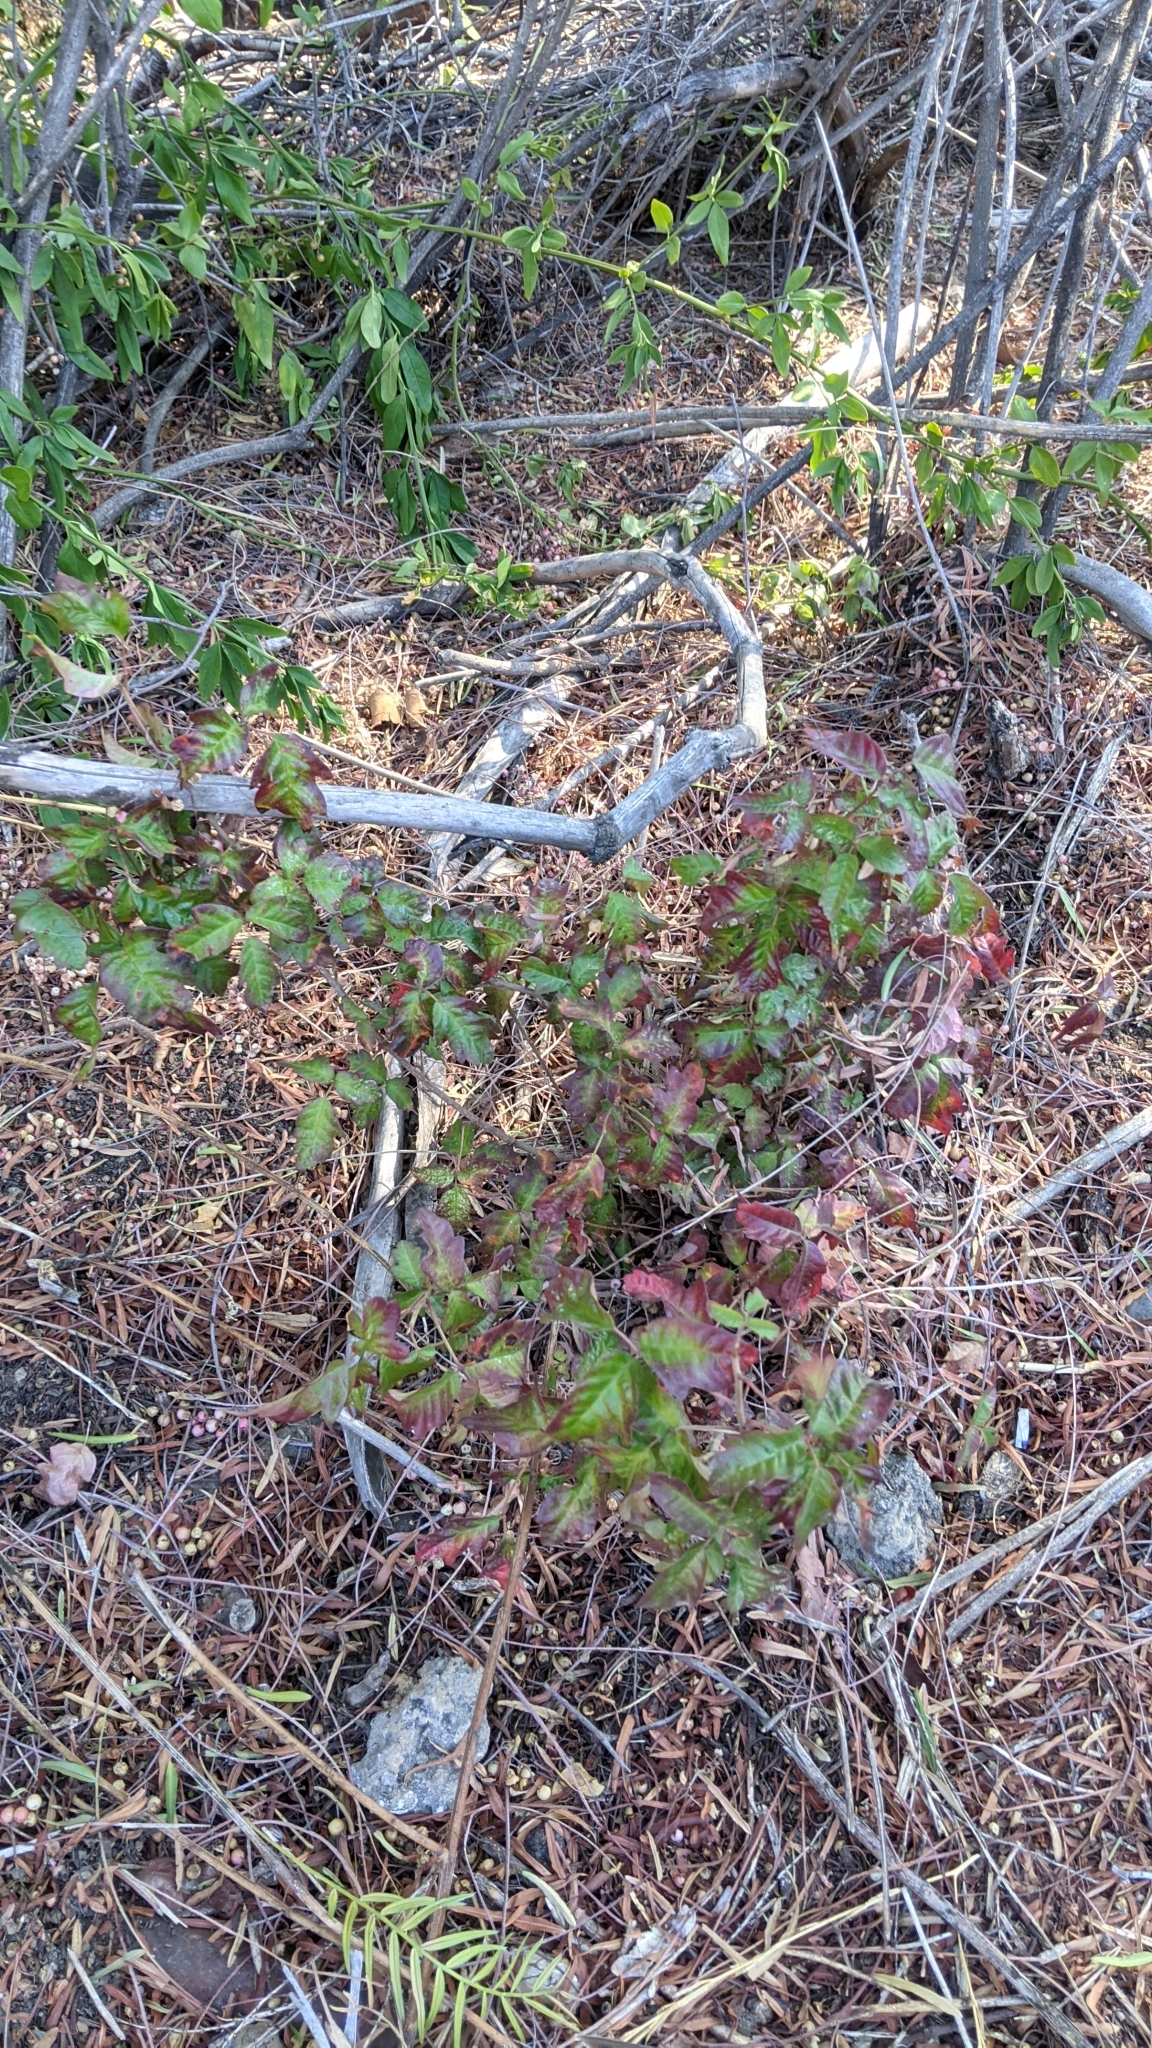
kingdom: Plantae
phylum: Tracheophyta
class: Magnoliopsida
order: Sapindales
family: Anacardiaceae
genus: Toxicodendron
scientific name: Toxicodendron diversilobum
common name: Pacific poison-oak
